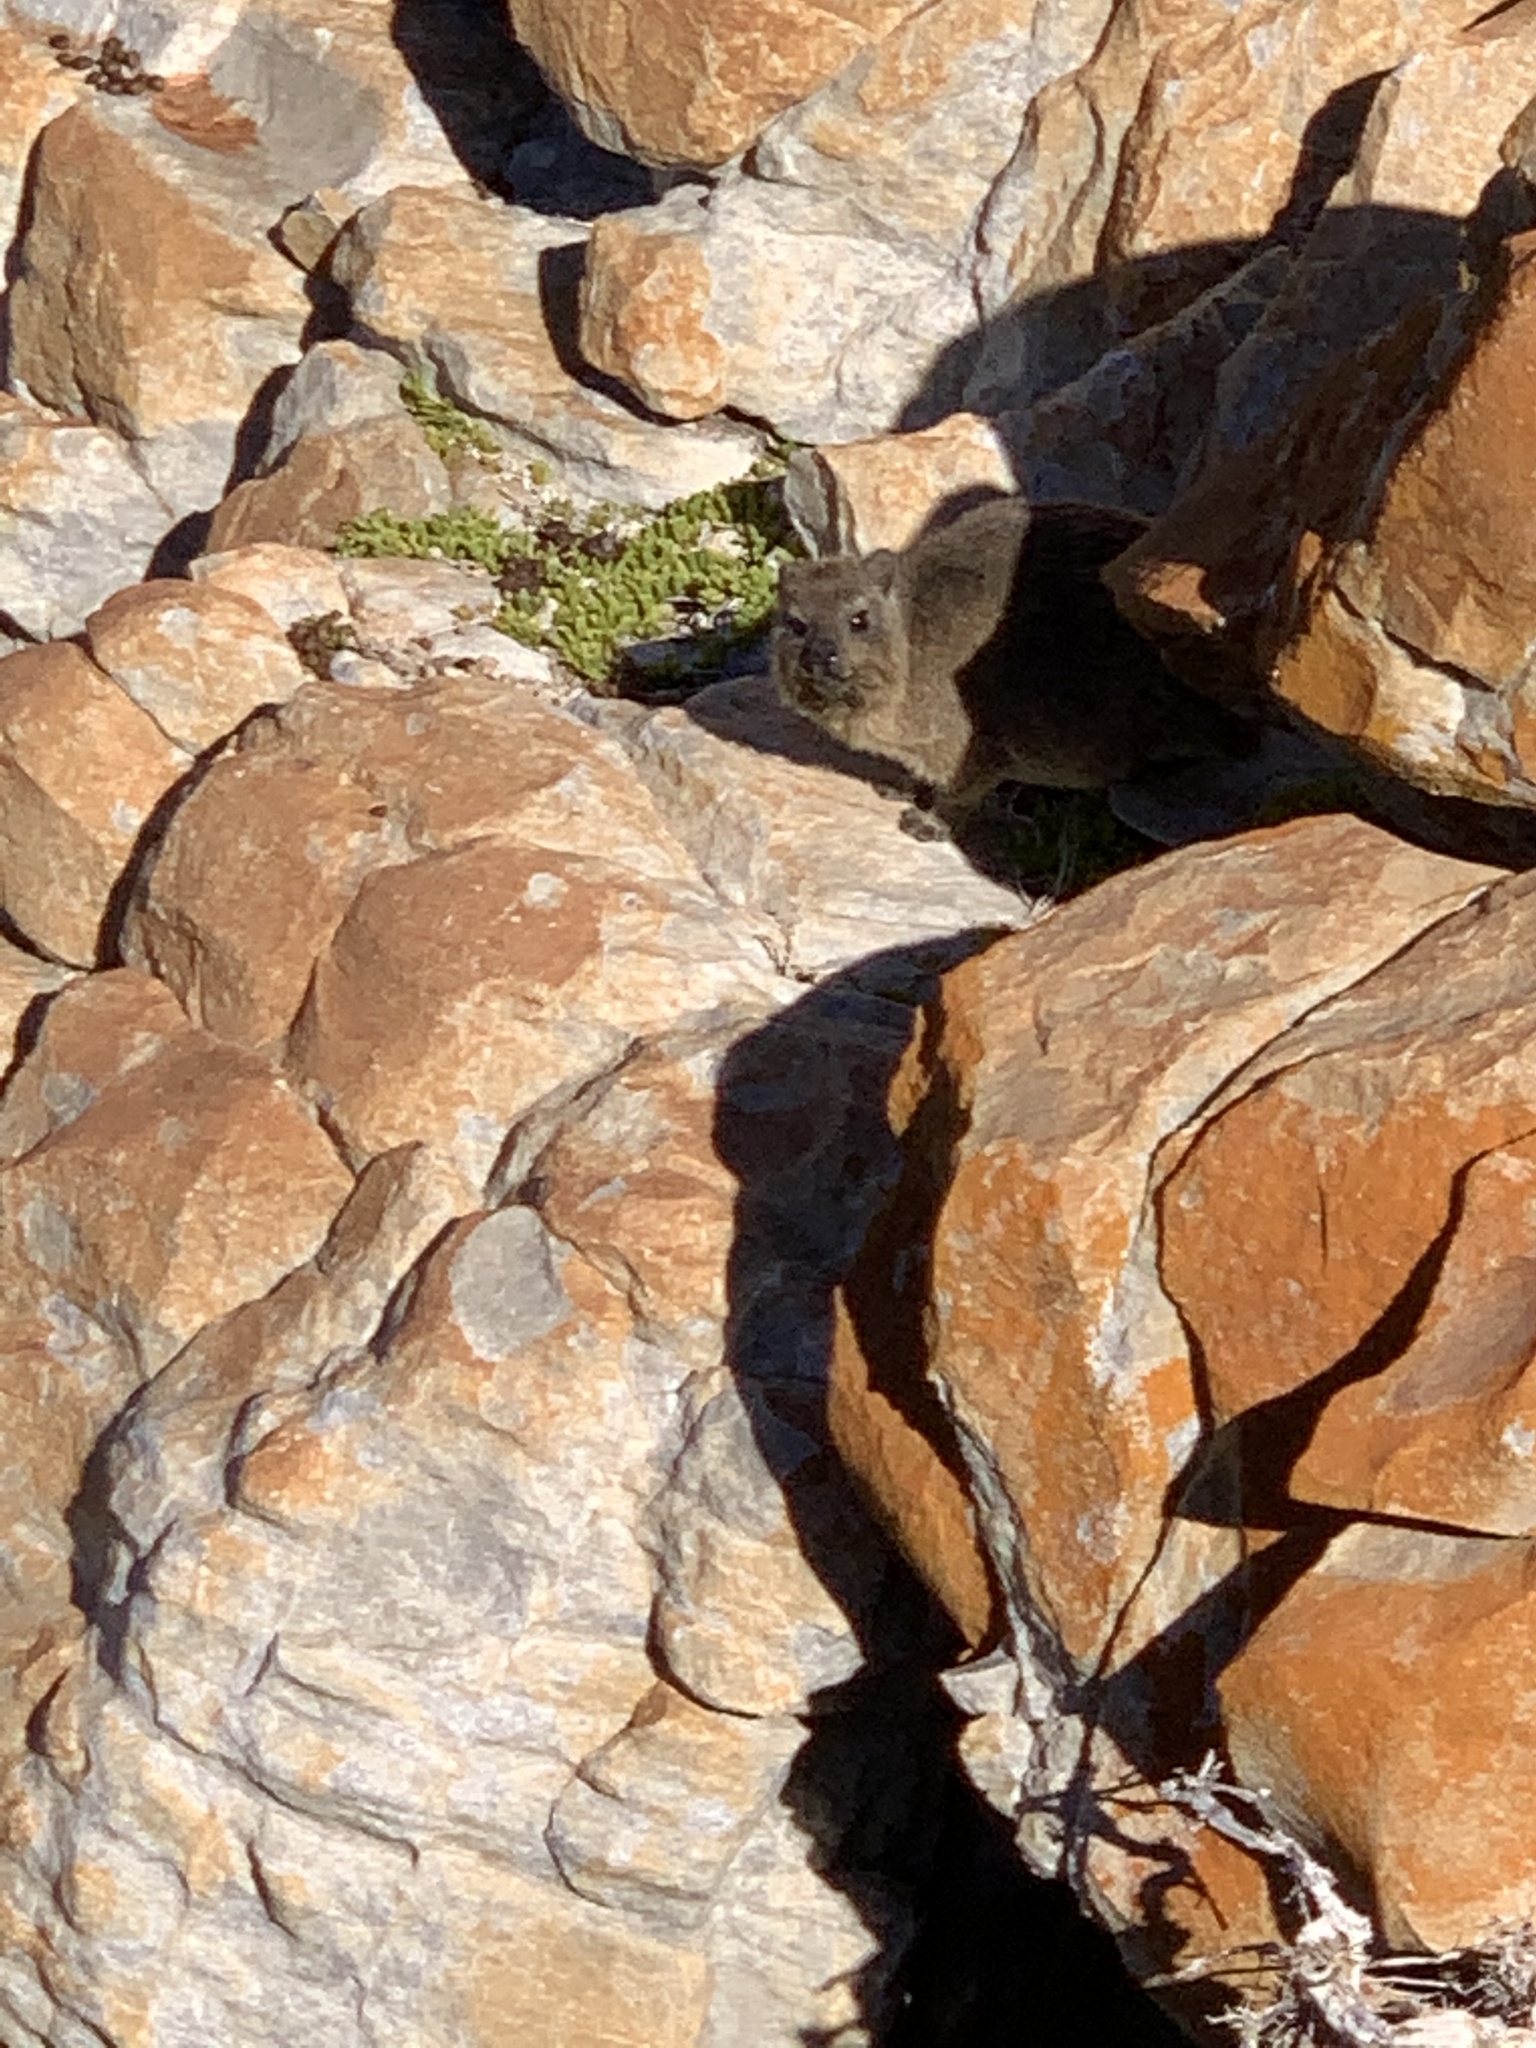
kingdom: Animalia
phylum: Chordata
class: Mammalia
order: Hyracoidea
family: Procaviidae
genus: Procavia
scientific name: Procavia capensis
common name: Rock hyrax
